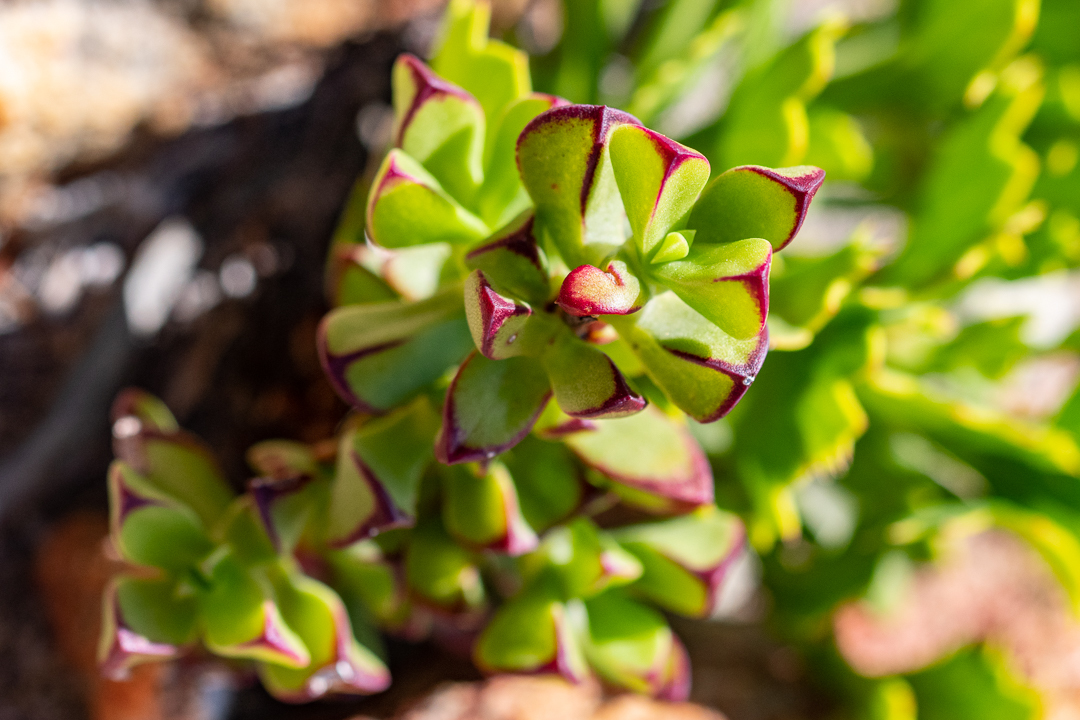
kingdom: Plantae
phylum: Tracheophyta
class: Magnoliopsida
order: Caryophyllales
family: Aizoaceae
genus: Erepsia
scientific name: Erepsia inclaudens
